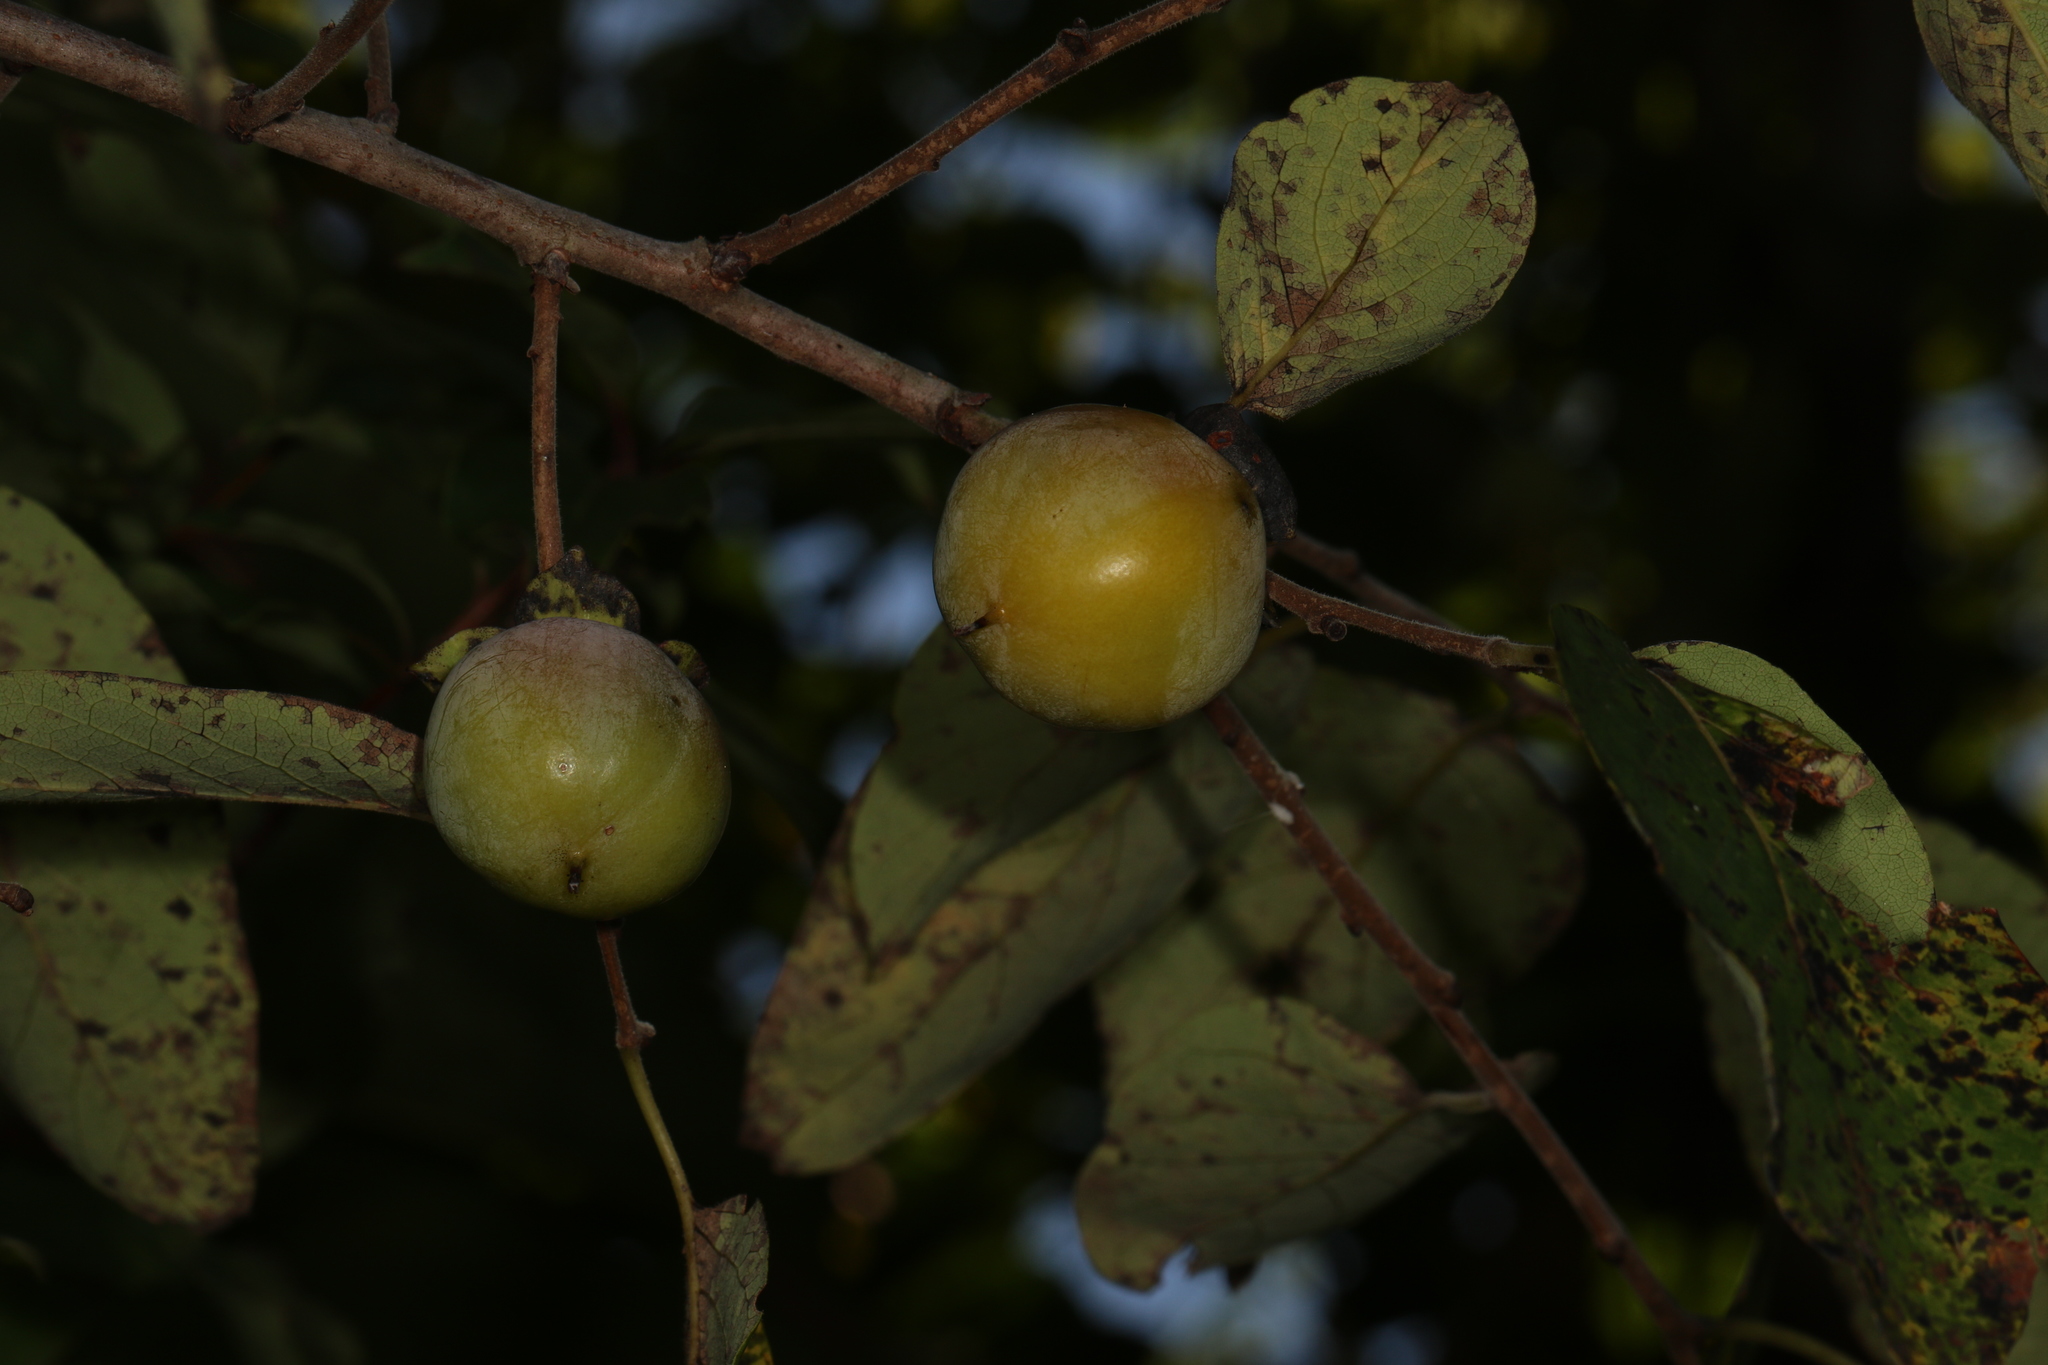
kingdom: Plantae
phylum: Tracheophyta
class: Magnoliopsida
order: Ericales
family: Ebenaceae
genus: Diospyros
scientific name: Diospyros virginiana
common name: Persimmon
